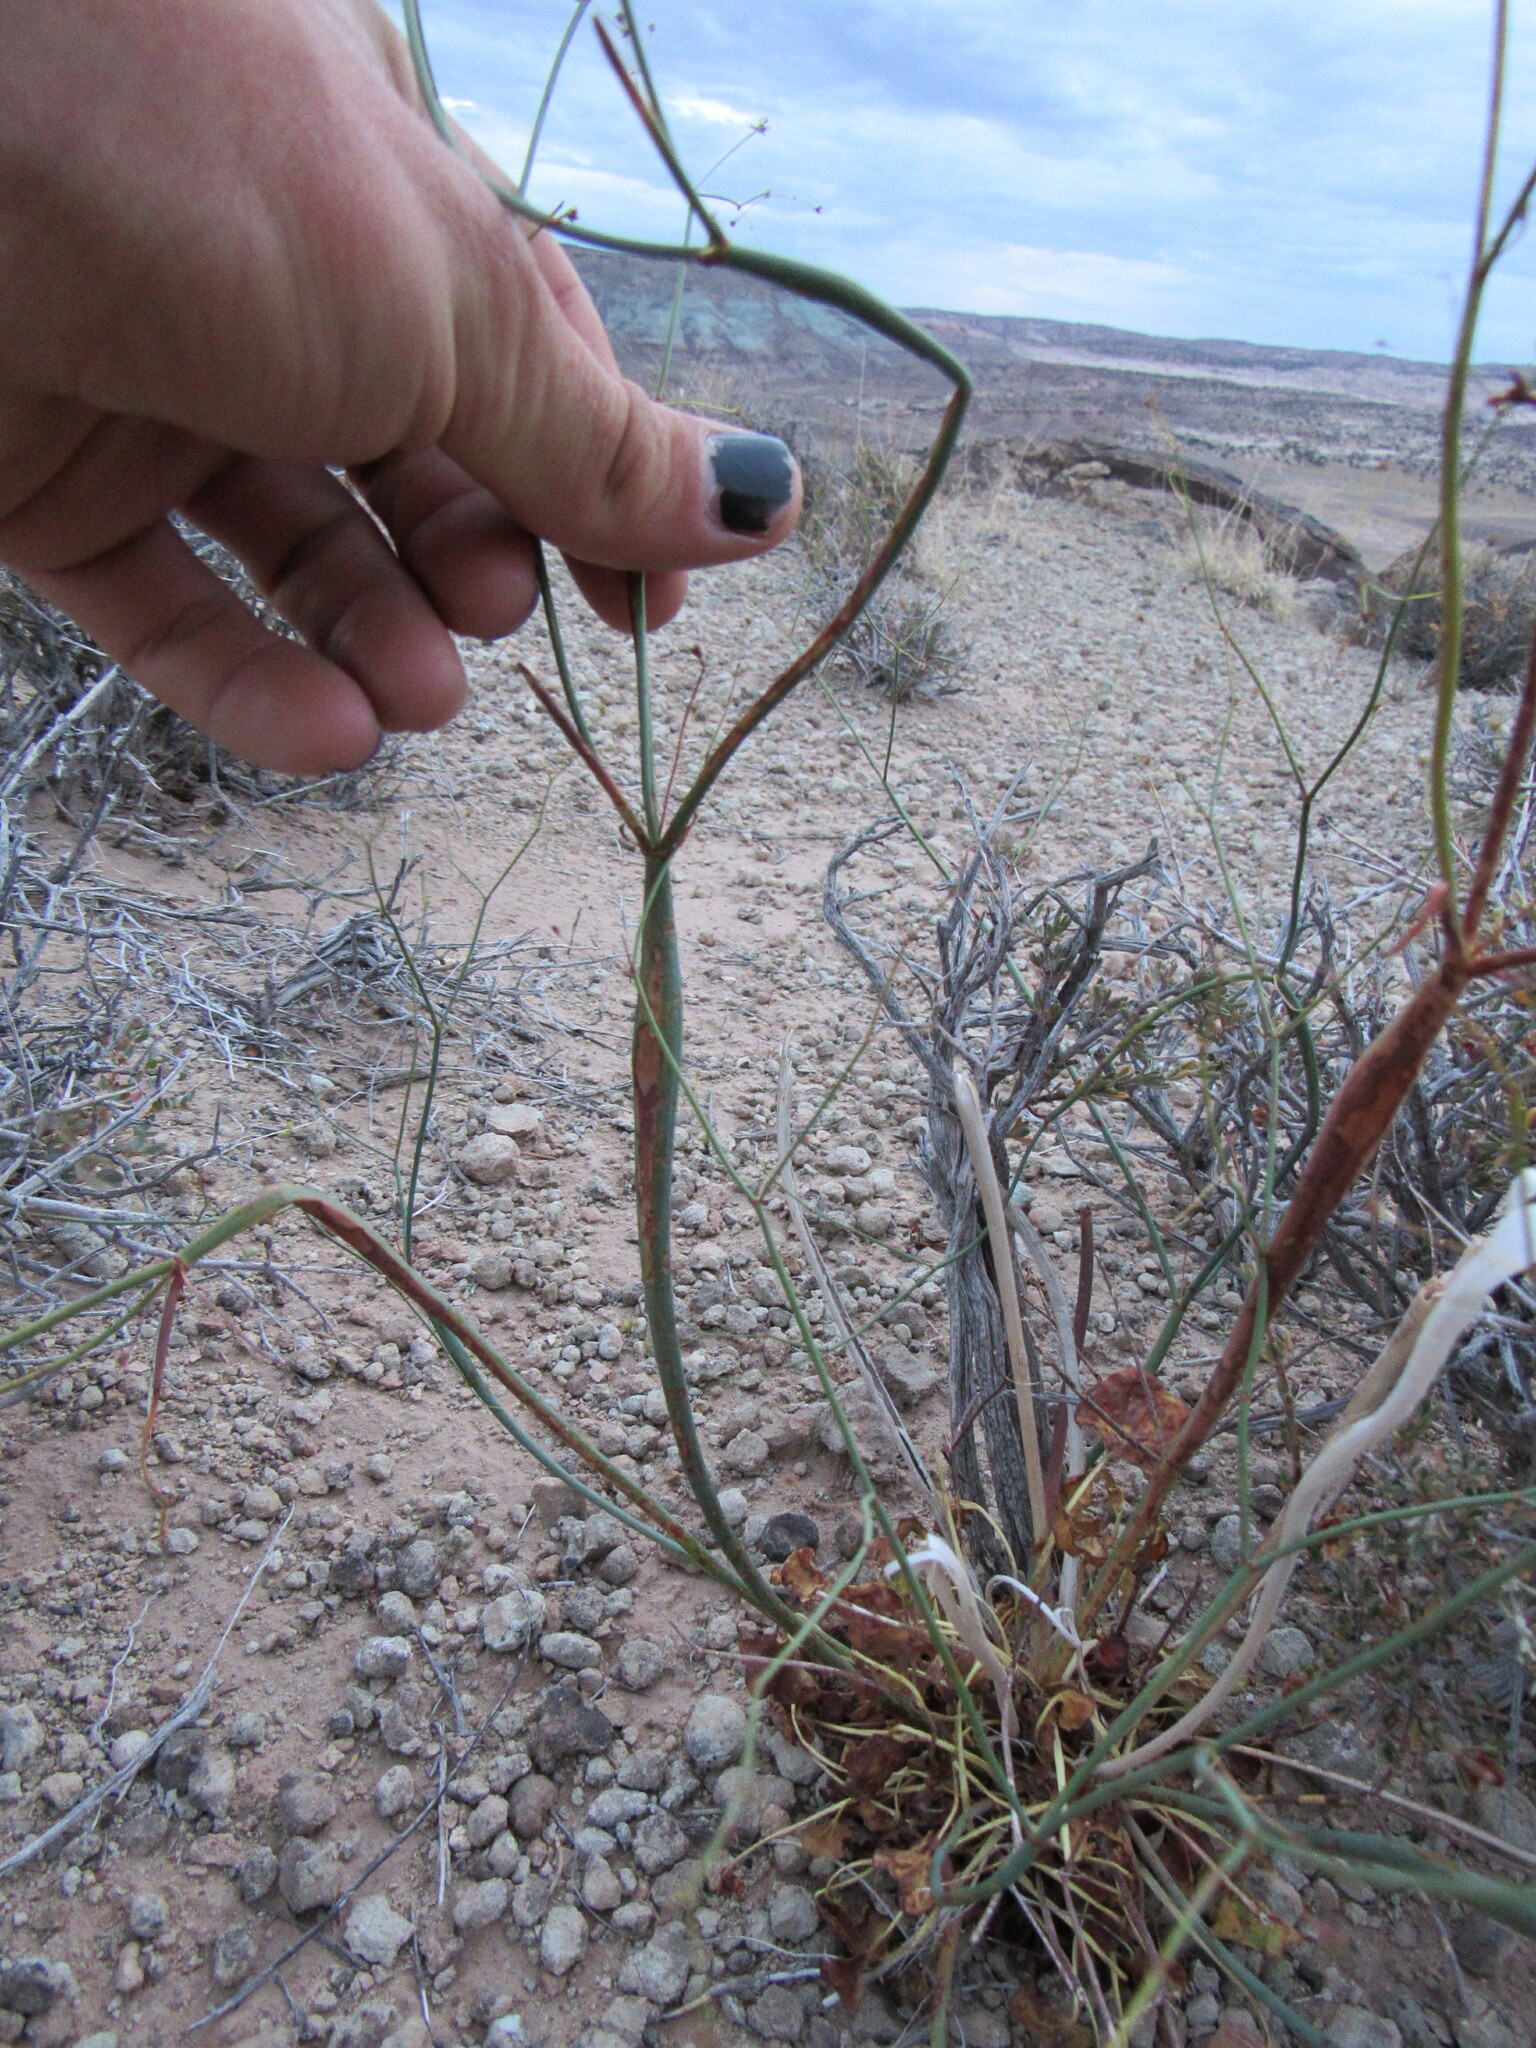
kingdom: Plantae
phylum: Tracheophyta
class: Magnoliopsida
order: Caryophyllales
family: Polygonaceae
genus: Eriogonum
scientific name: Eriogonum inflatum
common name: Desert trumpet
